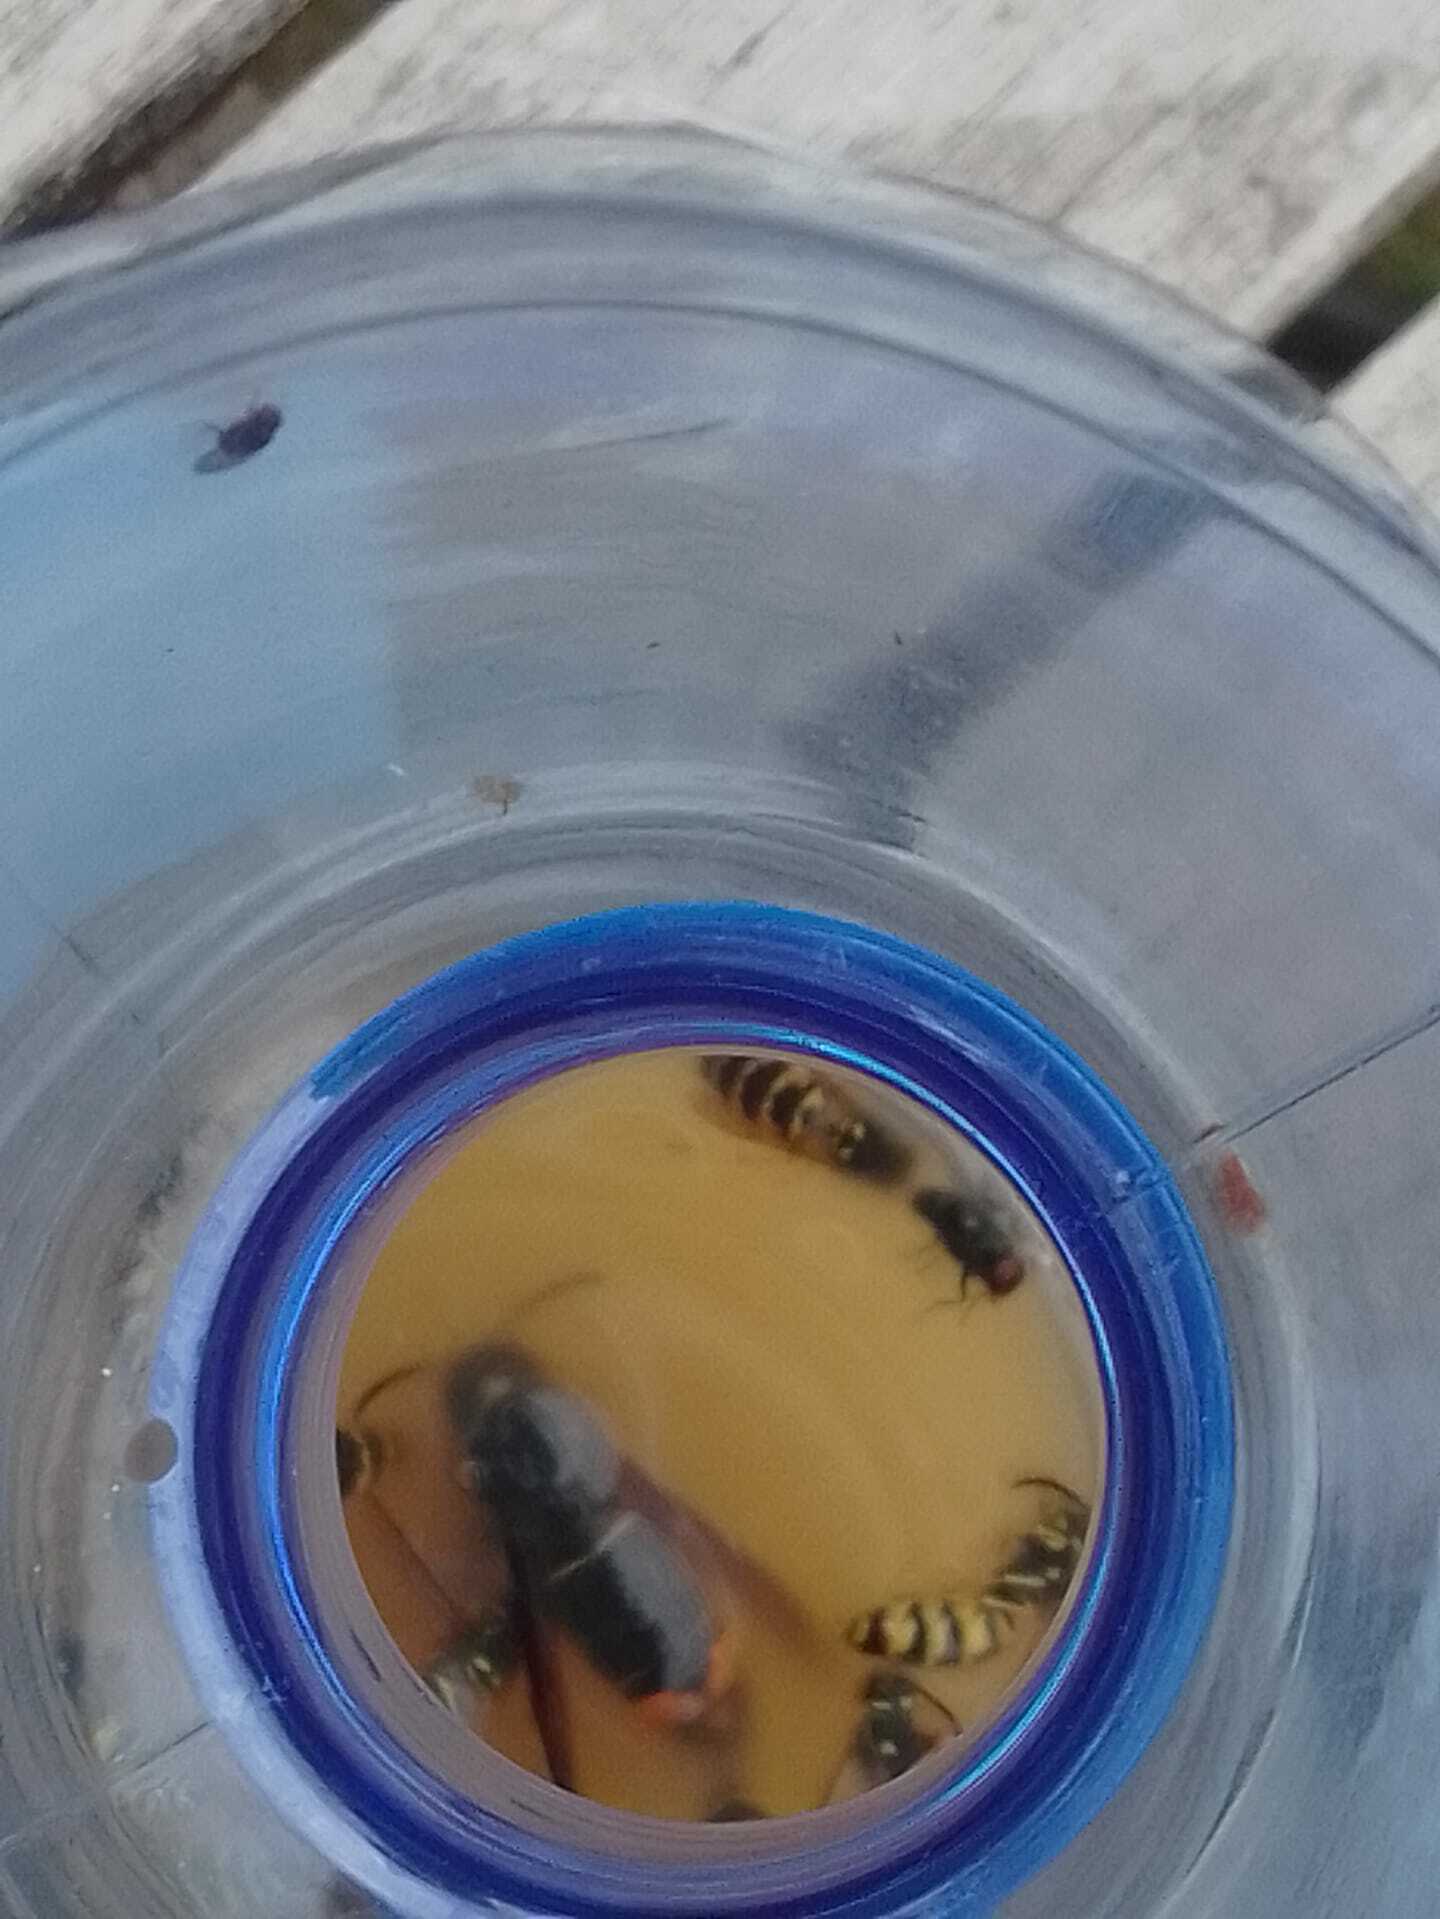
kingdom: Animalia
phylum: Arthropoda
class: Insecta
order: Hymenoptera
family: Vespidae
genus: Vespa
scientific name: Vespa velutina
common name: Asian hornet
